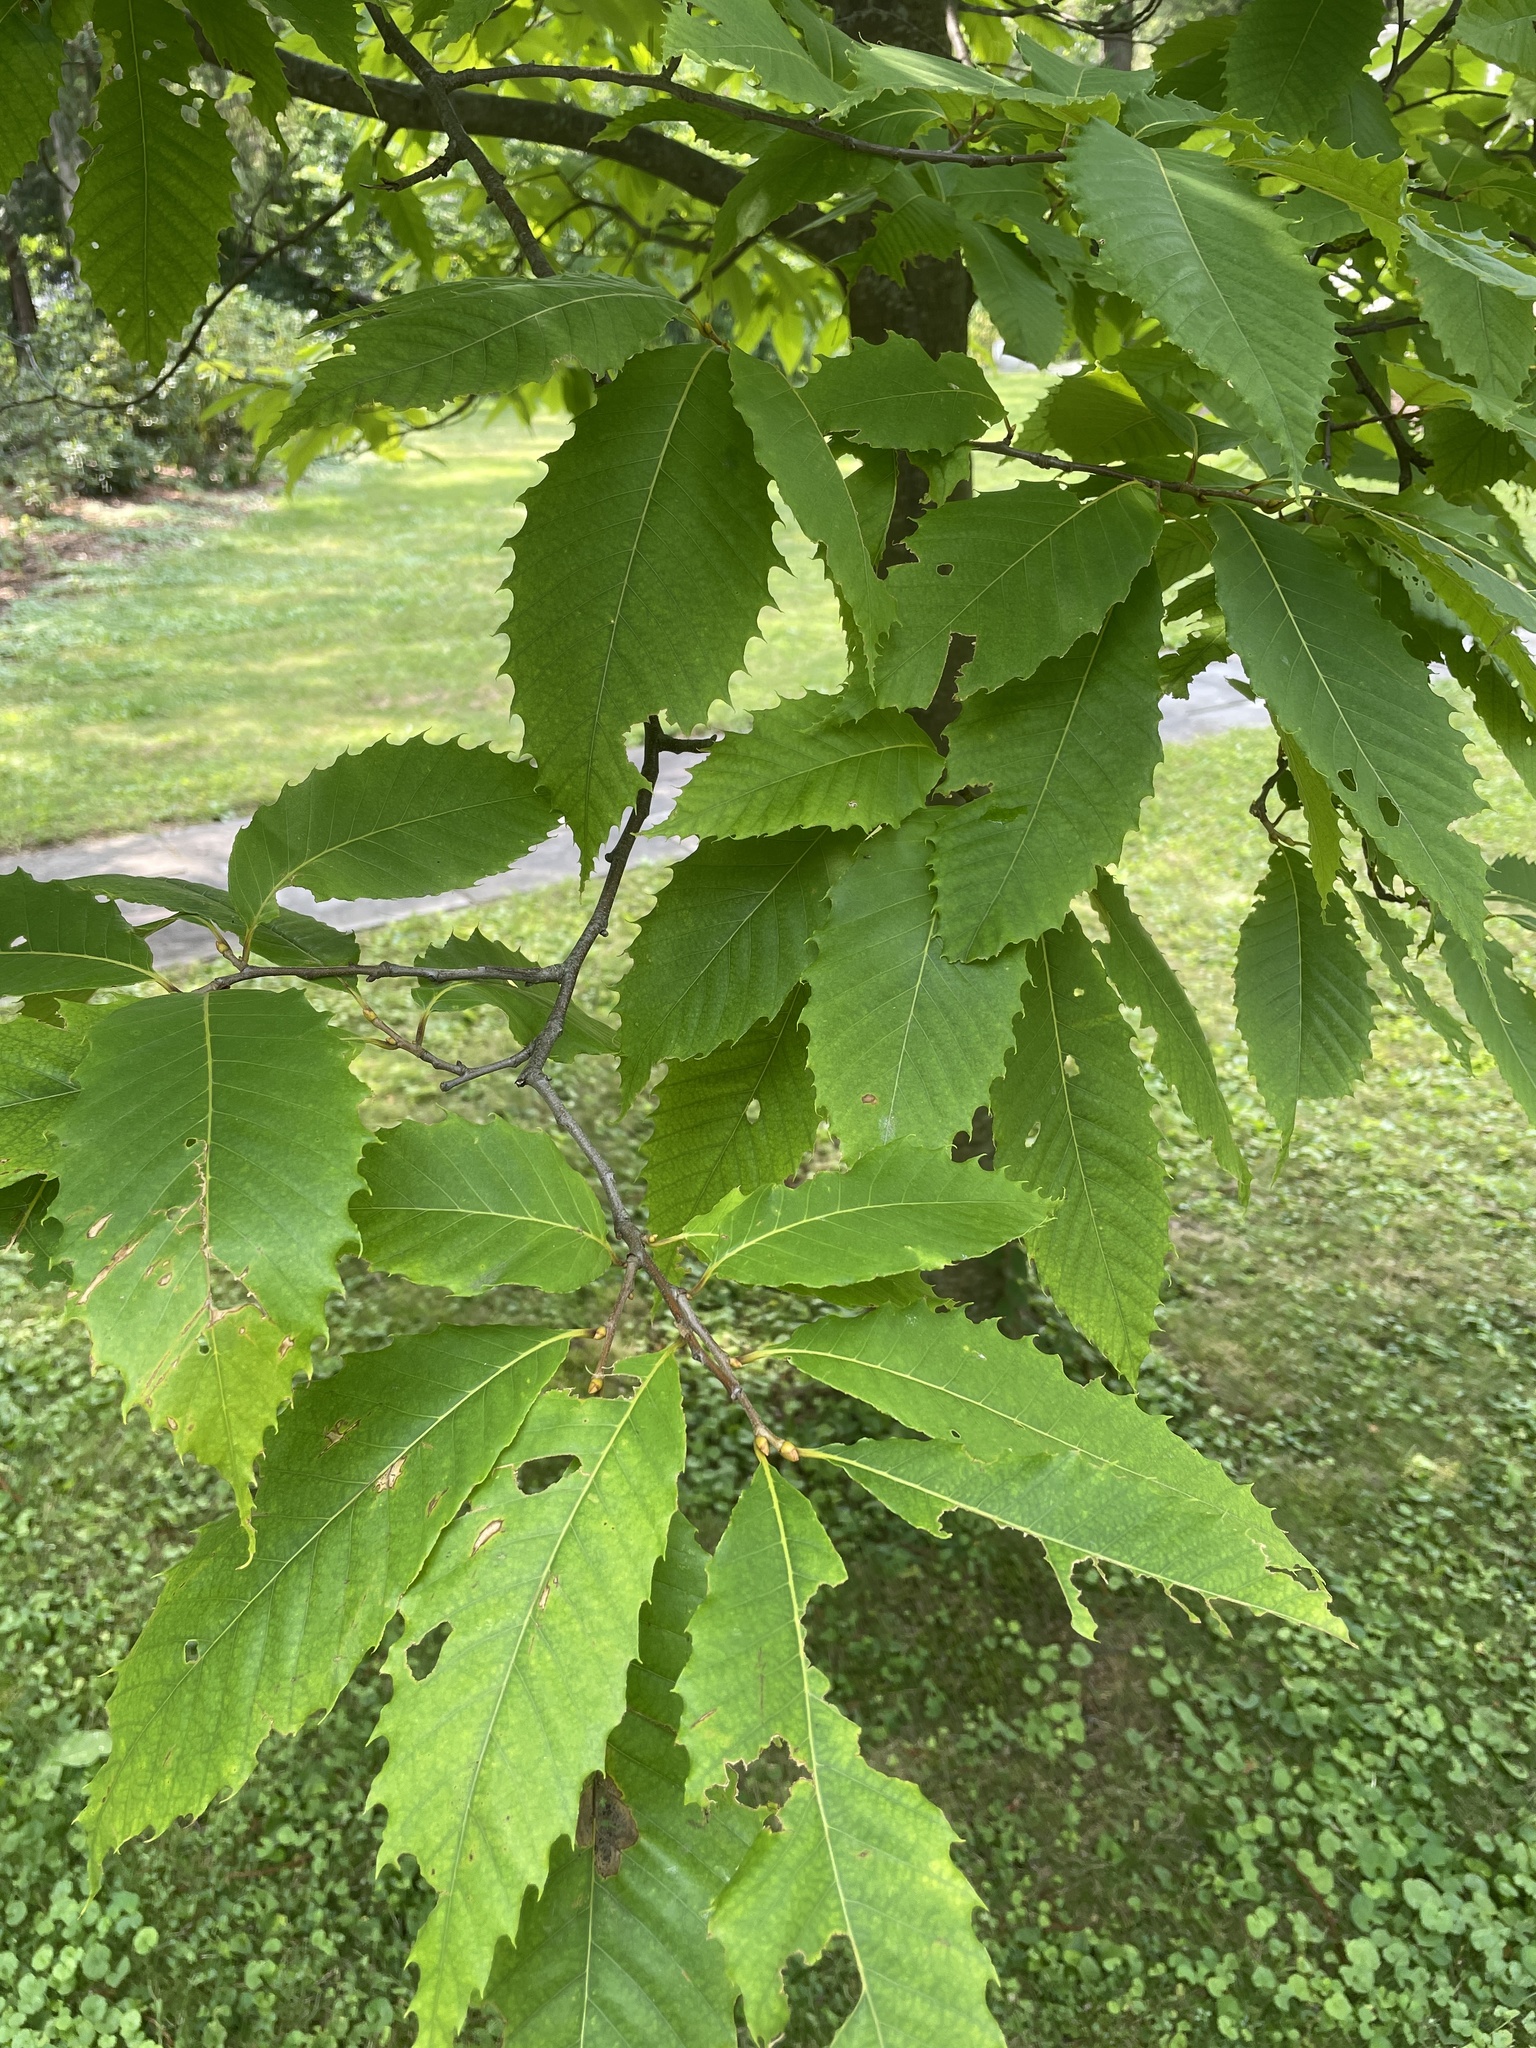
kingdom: Plantae
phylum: Tracheophyta
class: Magnoliopsida
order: Fagales
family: Fagaceae
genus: Castanea
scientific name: Castanea dentata
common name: American chestnut
